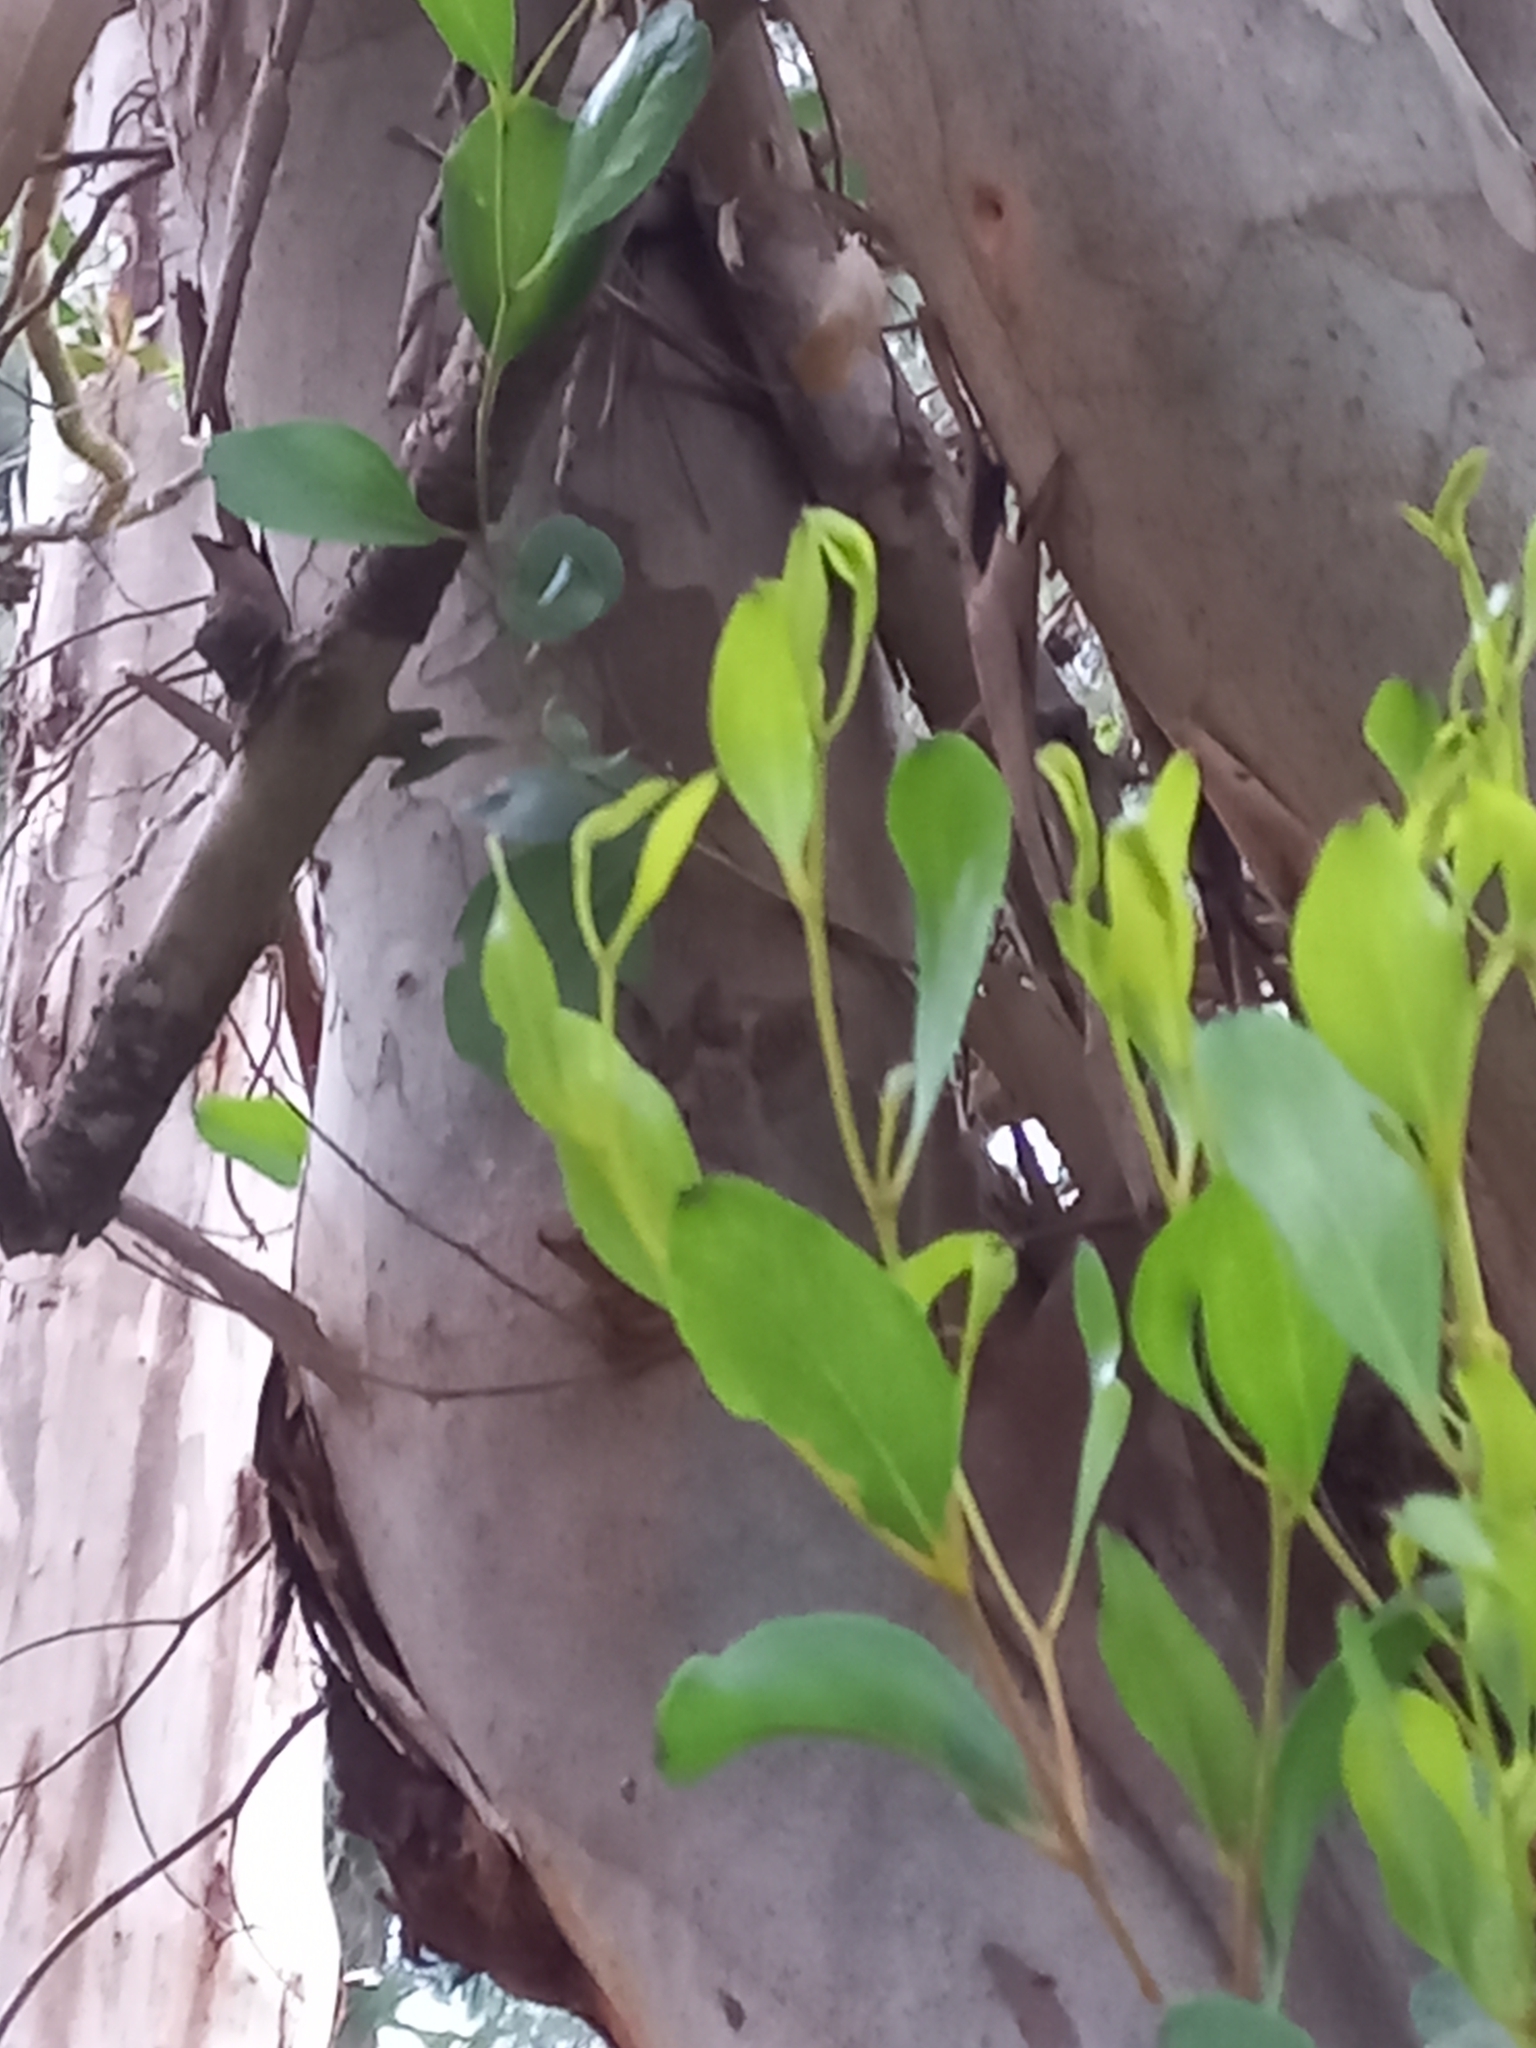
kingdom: Plantae
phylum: Tracheophyta
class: Magnoliopsida
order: Myrtales
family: Myrtaceae
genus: Eucalyptus
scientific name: Eucalyptus conferruminata
